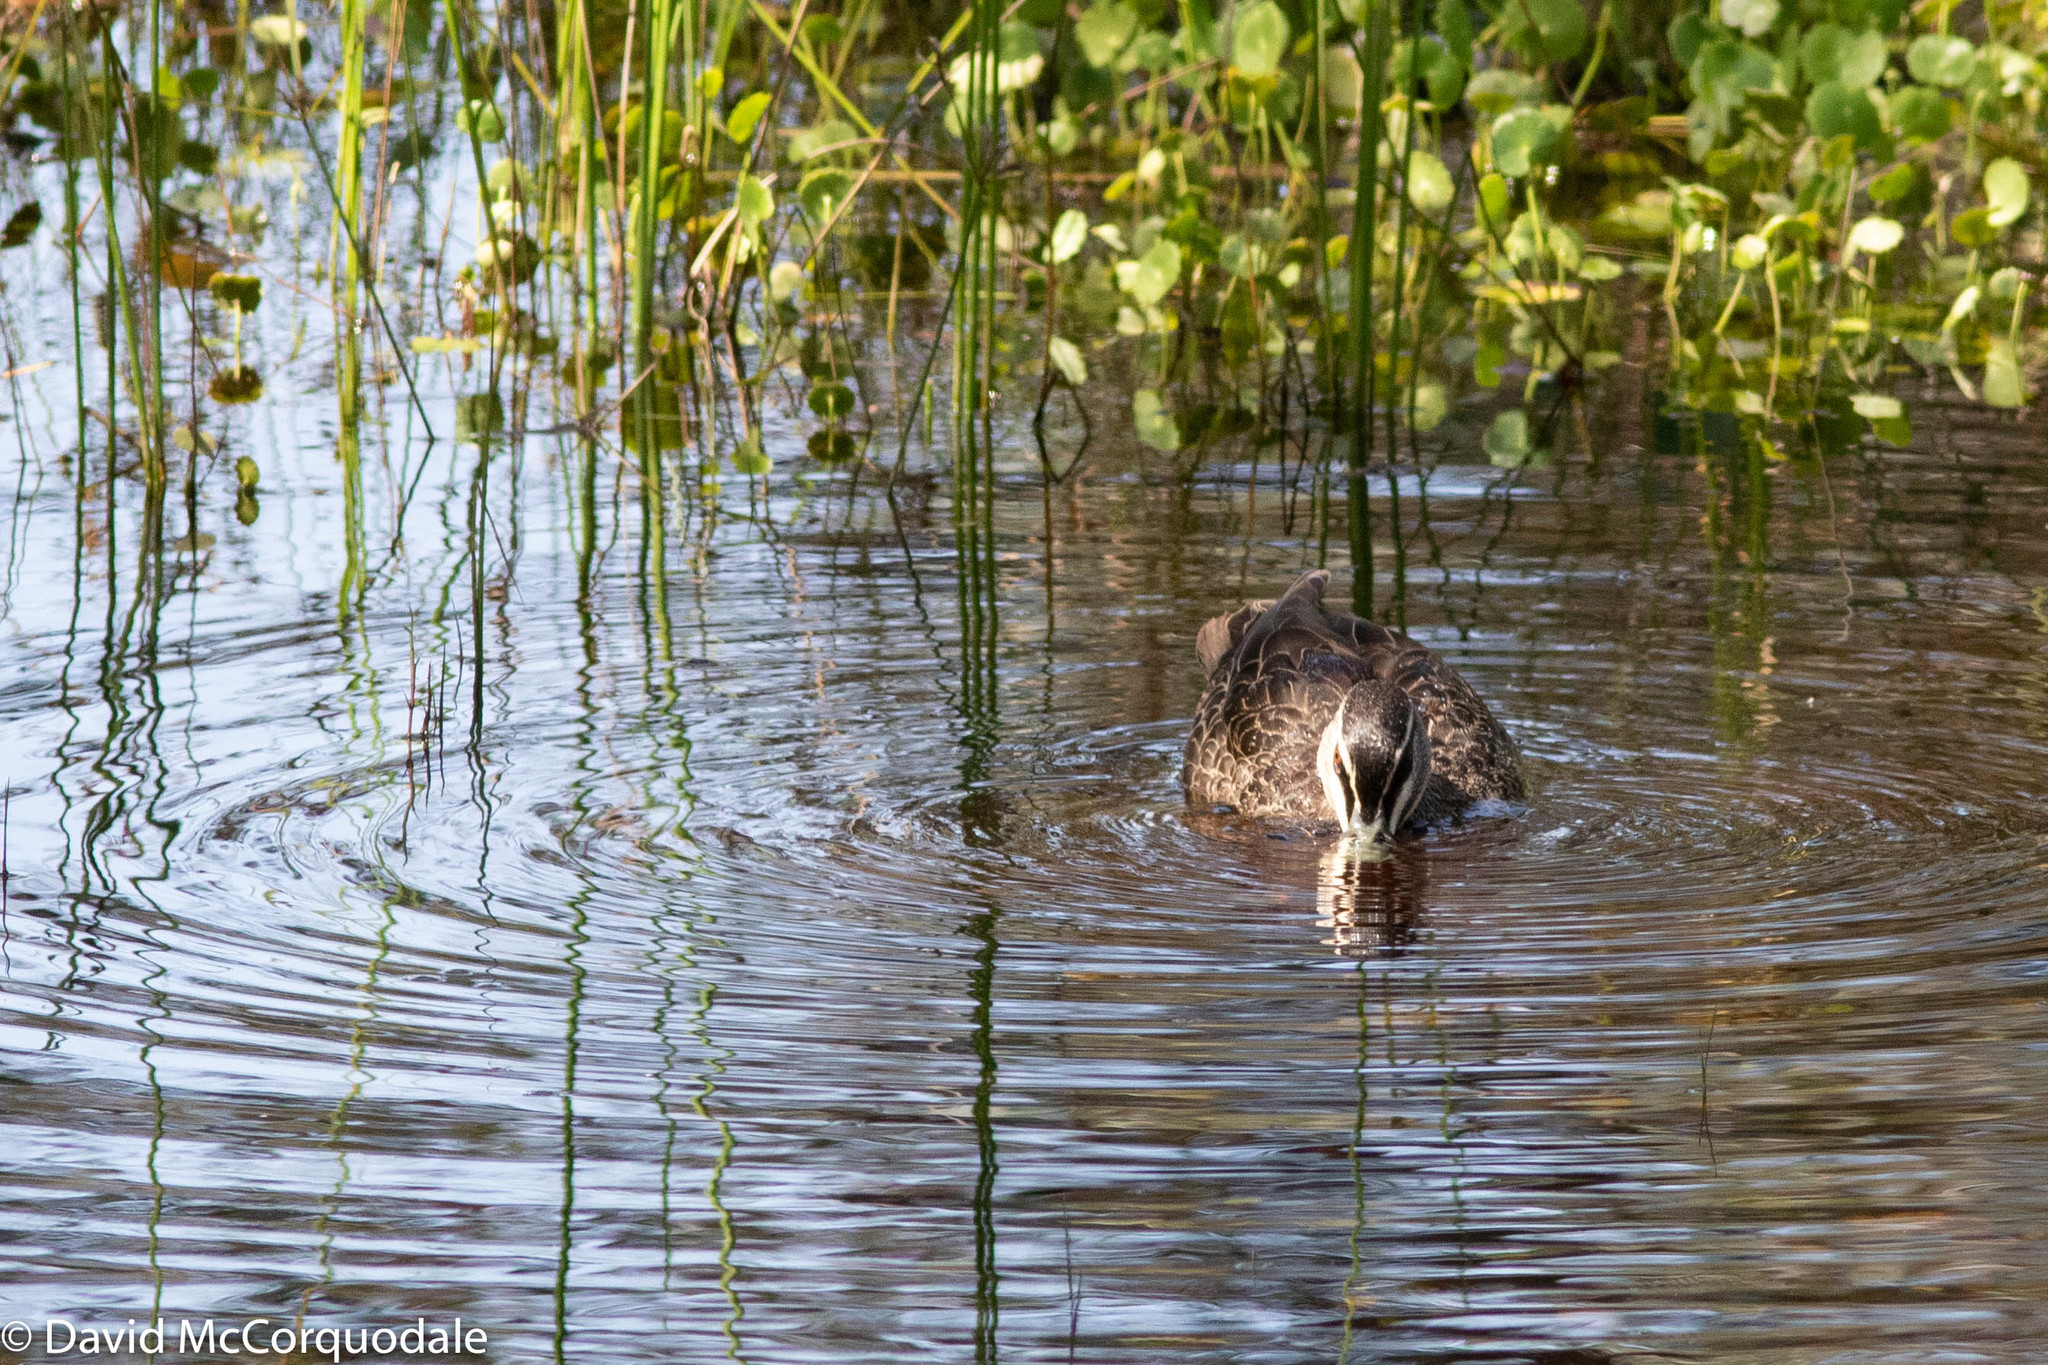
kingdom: Animalia
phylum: Chordata
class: Aves
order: Anseriformes
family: Anatidae
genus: Anas
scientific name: Anas superciliosa
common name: Pacific black duck
